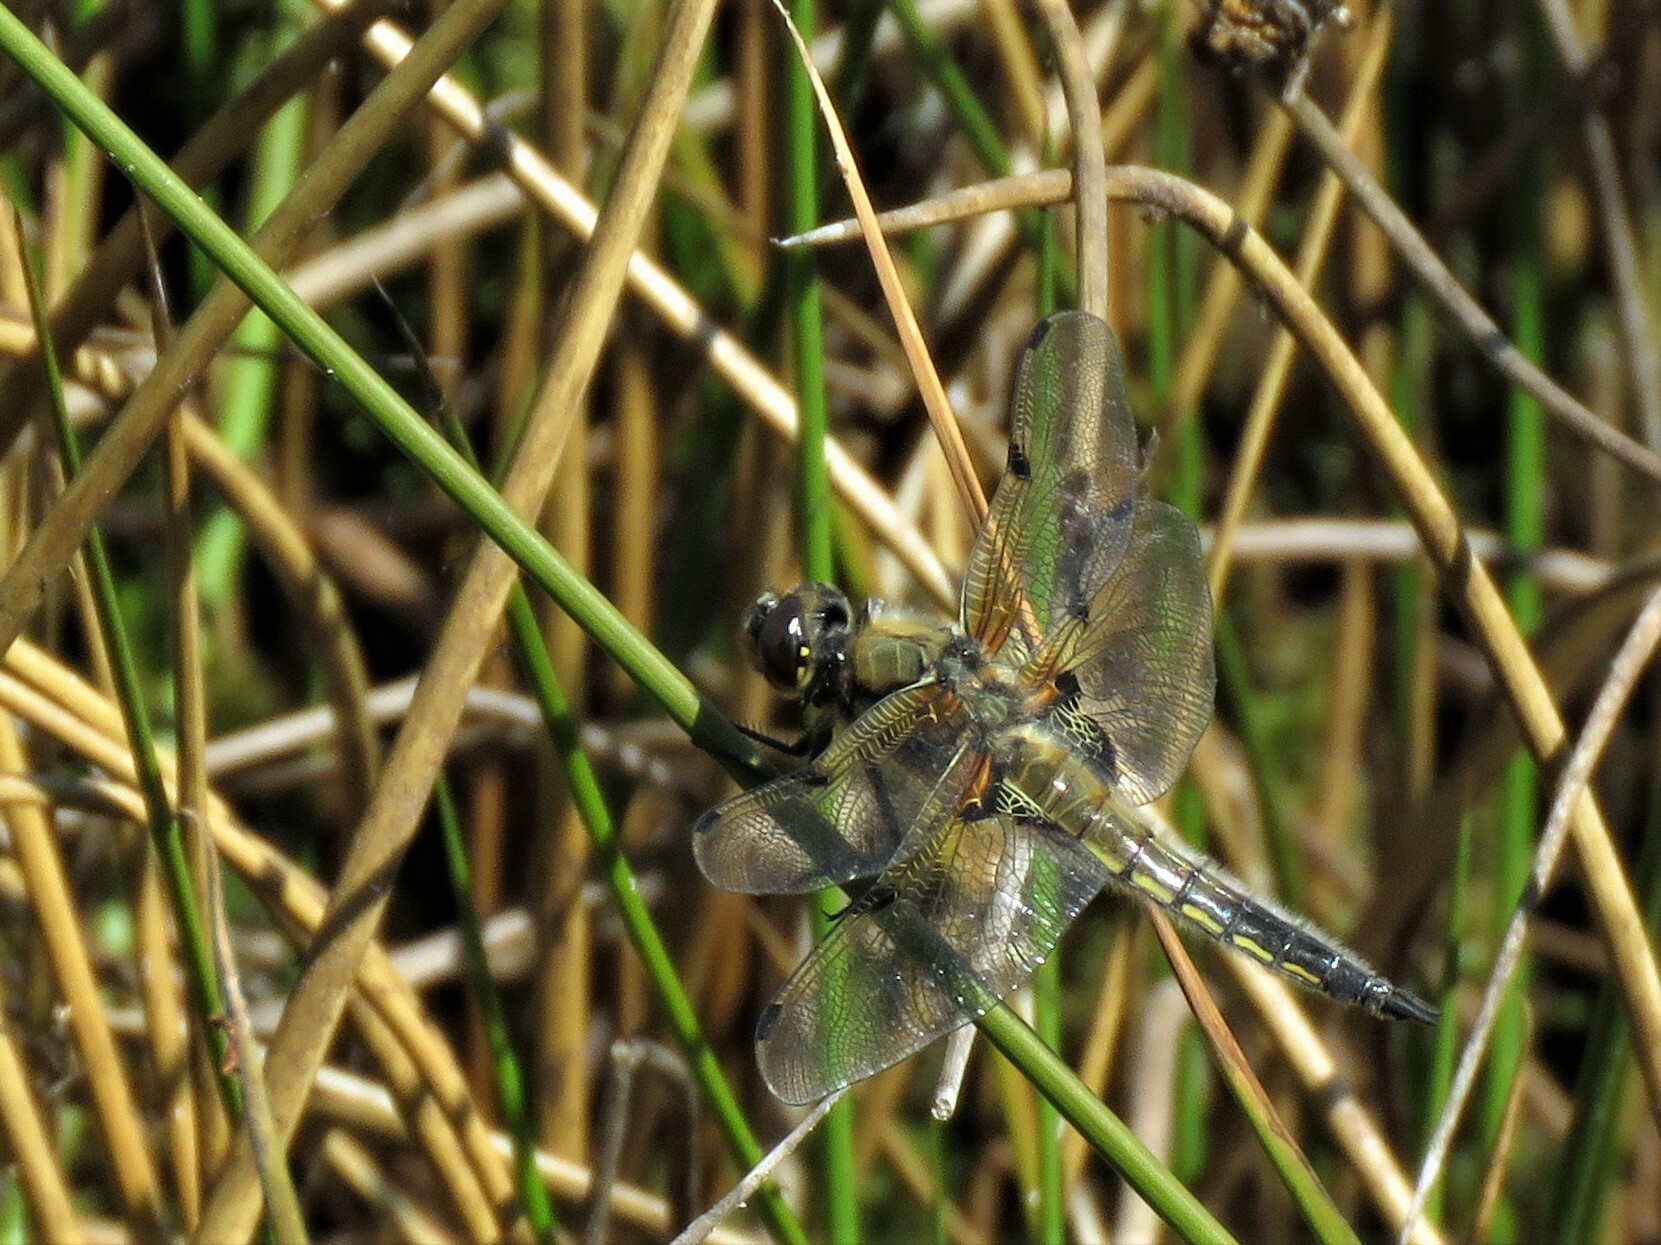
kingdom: Animalia
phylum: Arthropoda
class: Insecta
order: Odonata
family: Libellulidae
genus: Libellula
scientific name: Libellula quadrimaculata
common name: Four-spotted chaser
